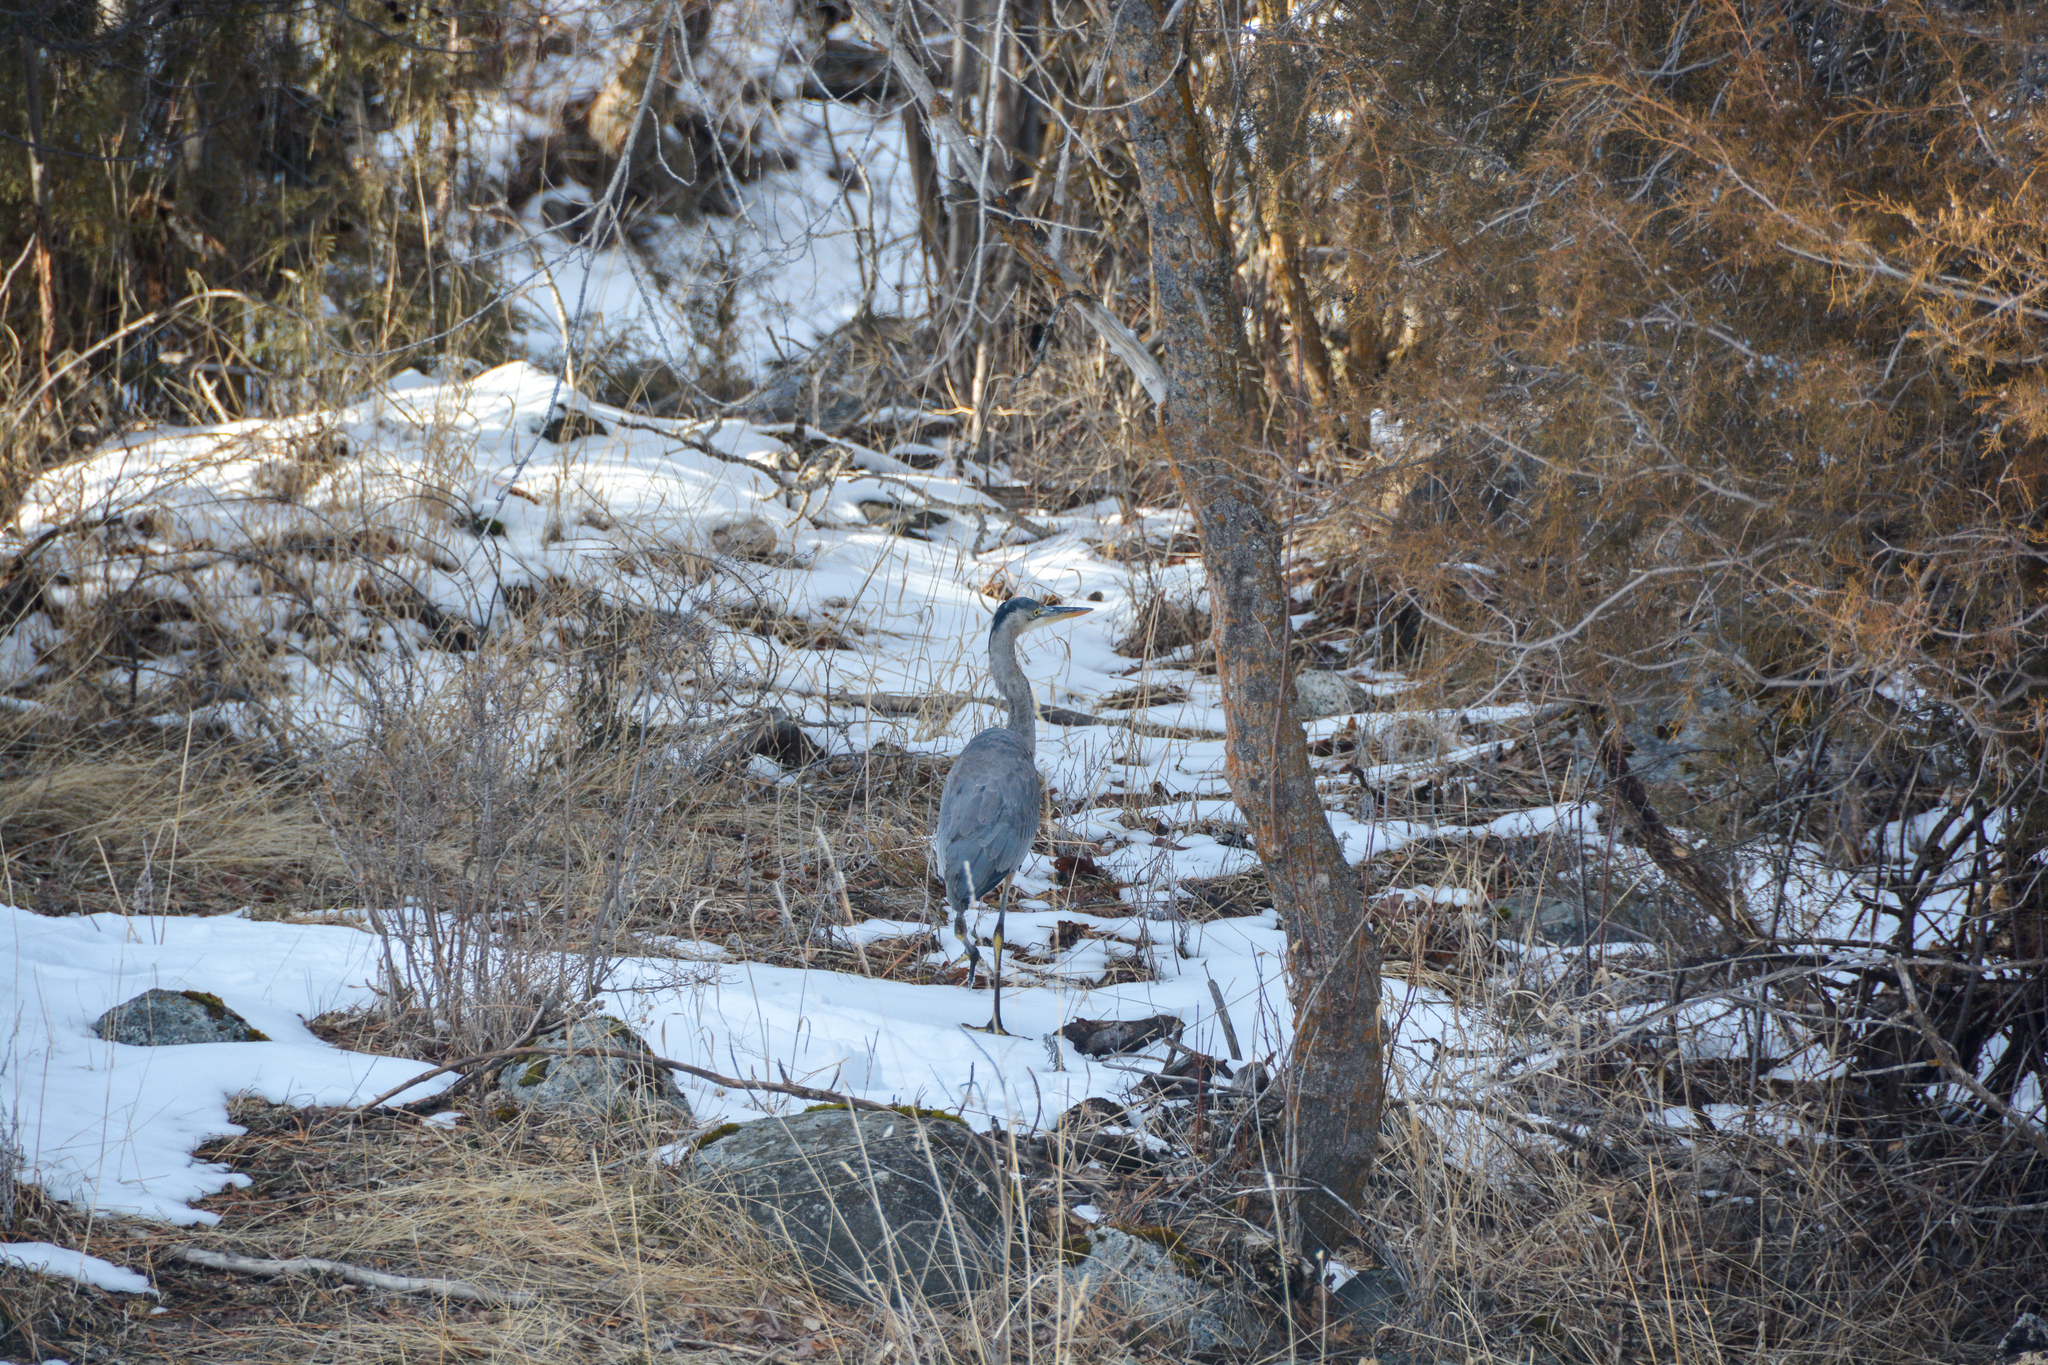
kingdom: Animalia
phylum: Chordata
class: Aves
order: Pelecaniformes
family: Ardeidae
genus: Ardea
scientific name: Ardea herodias
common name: Great blue heron
